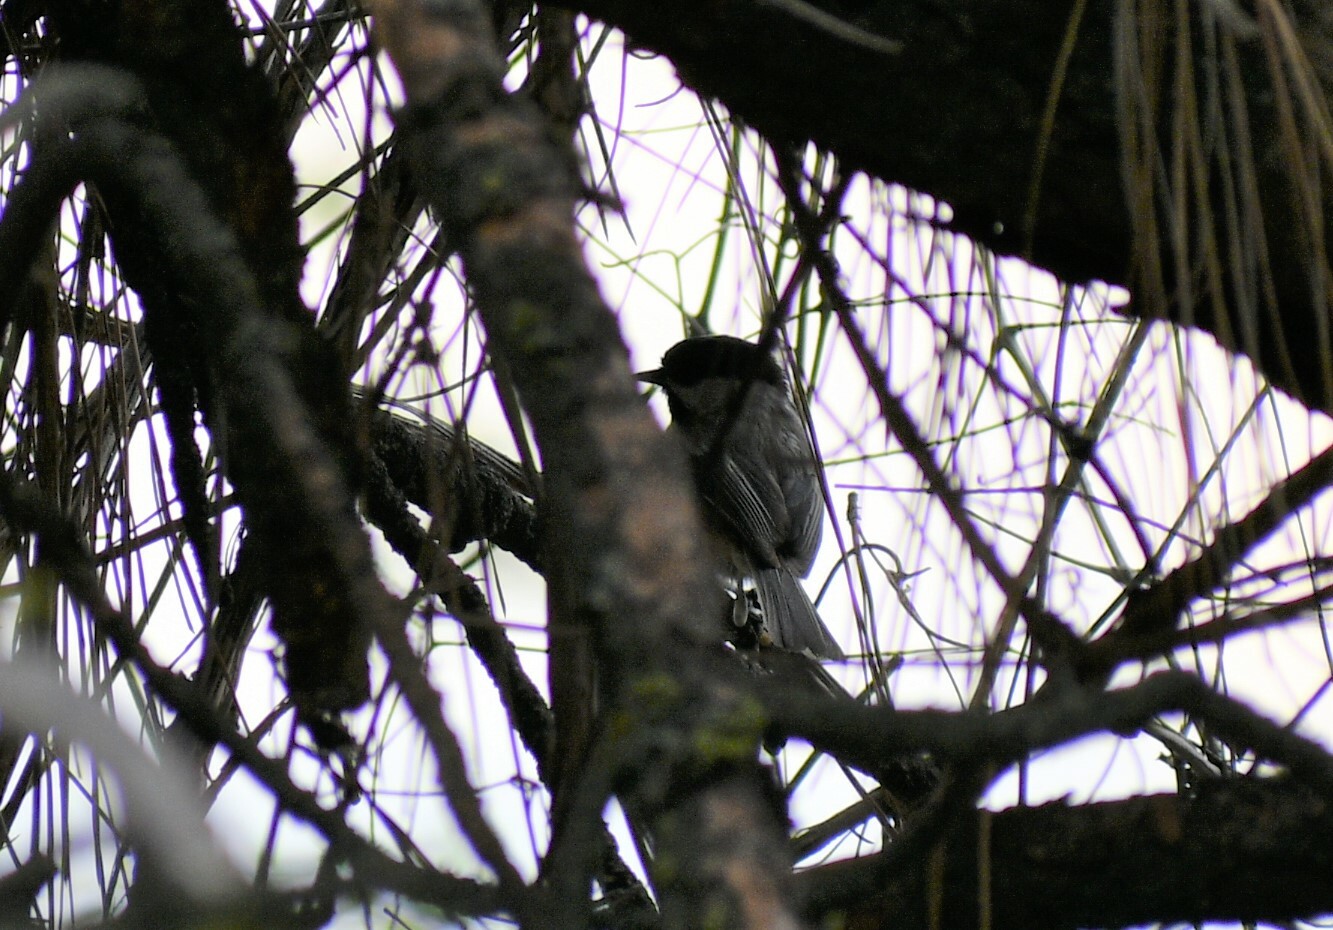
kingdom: Animalia
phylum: Chordata
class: Aves
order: Passeriformes
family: Paridae
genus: Poecile
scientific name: Poecile gambeli
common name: Mountain chickadee
